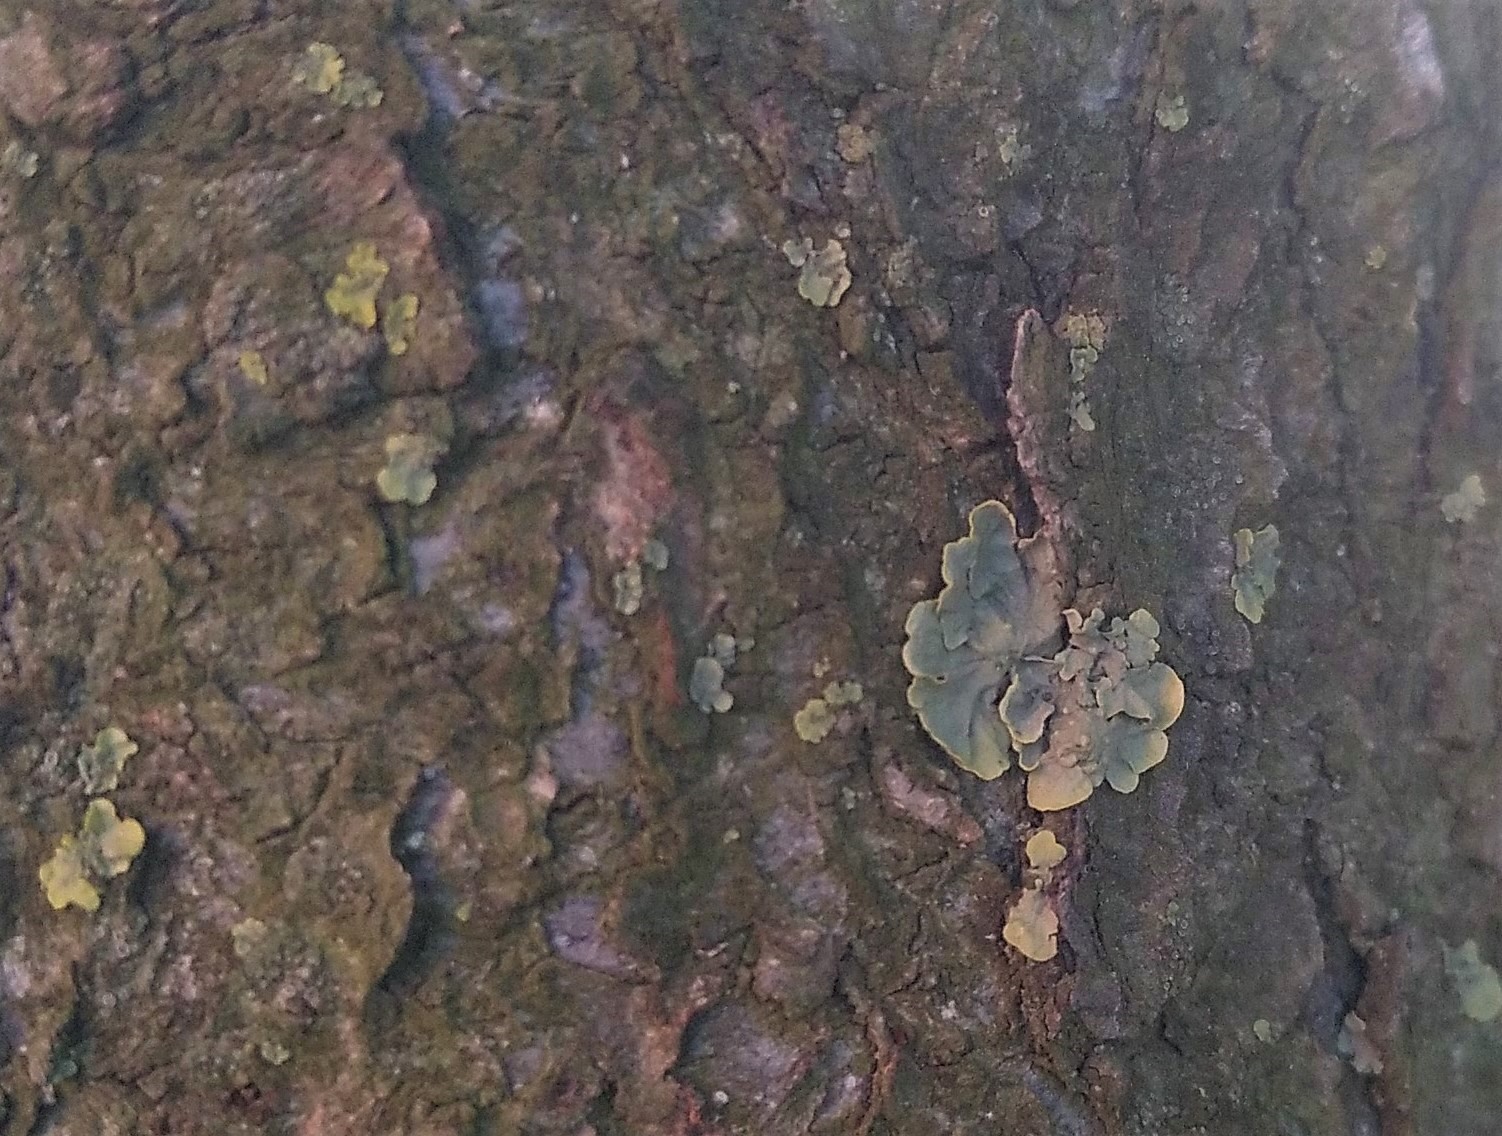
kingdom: Fungi
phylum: Ascomycota
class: Lecanoromycetes
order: Teloschistales
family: Teloschistaceae
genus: Xanthoria
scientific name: Xanthoria parietina
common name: Common orange lichen
